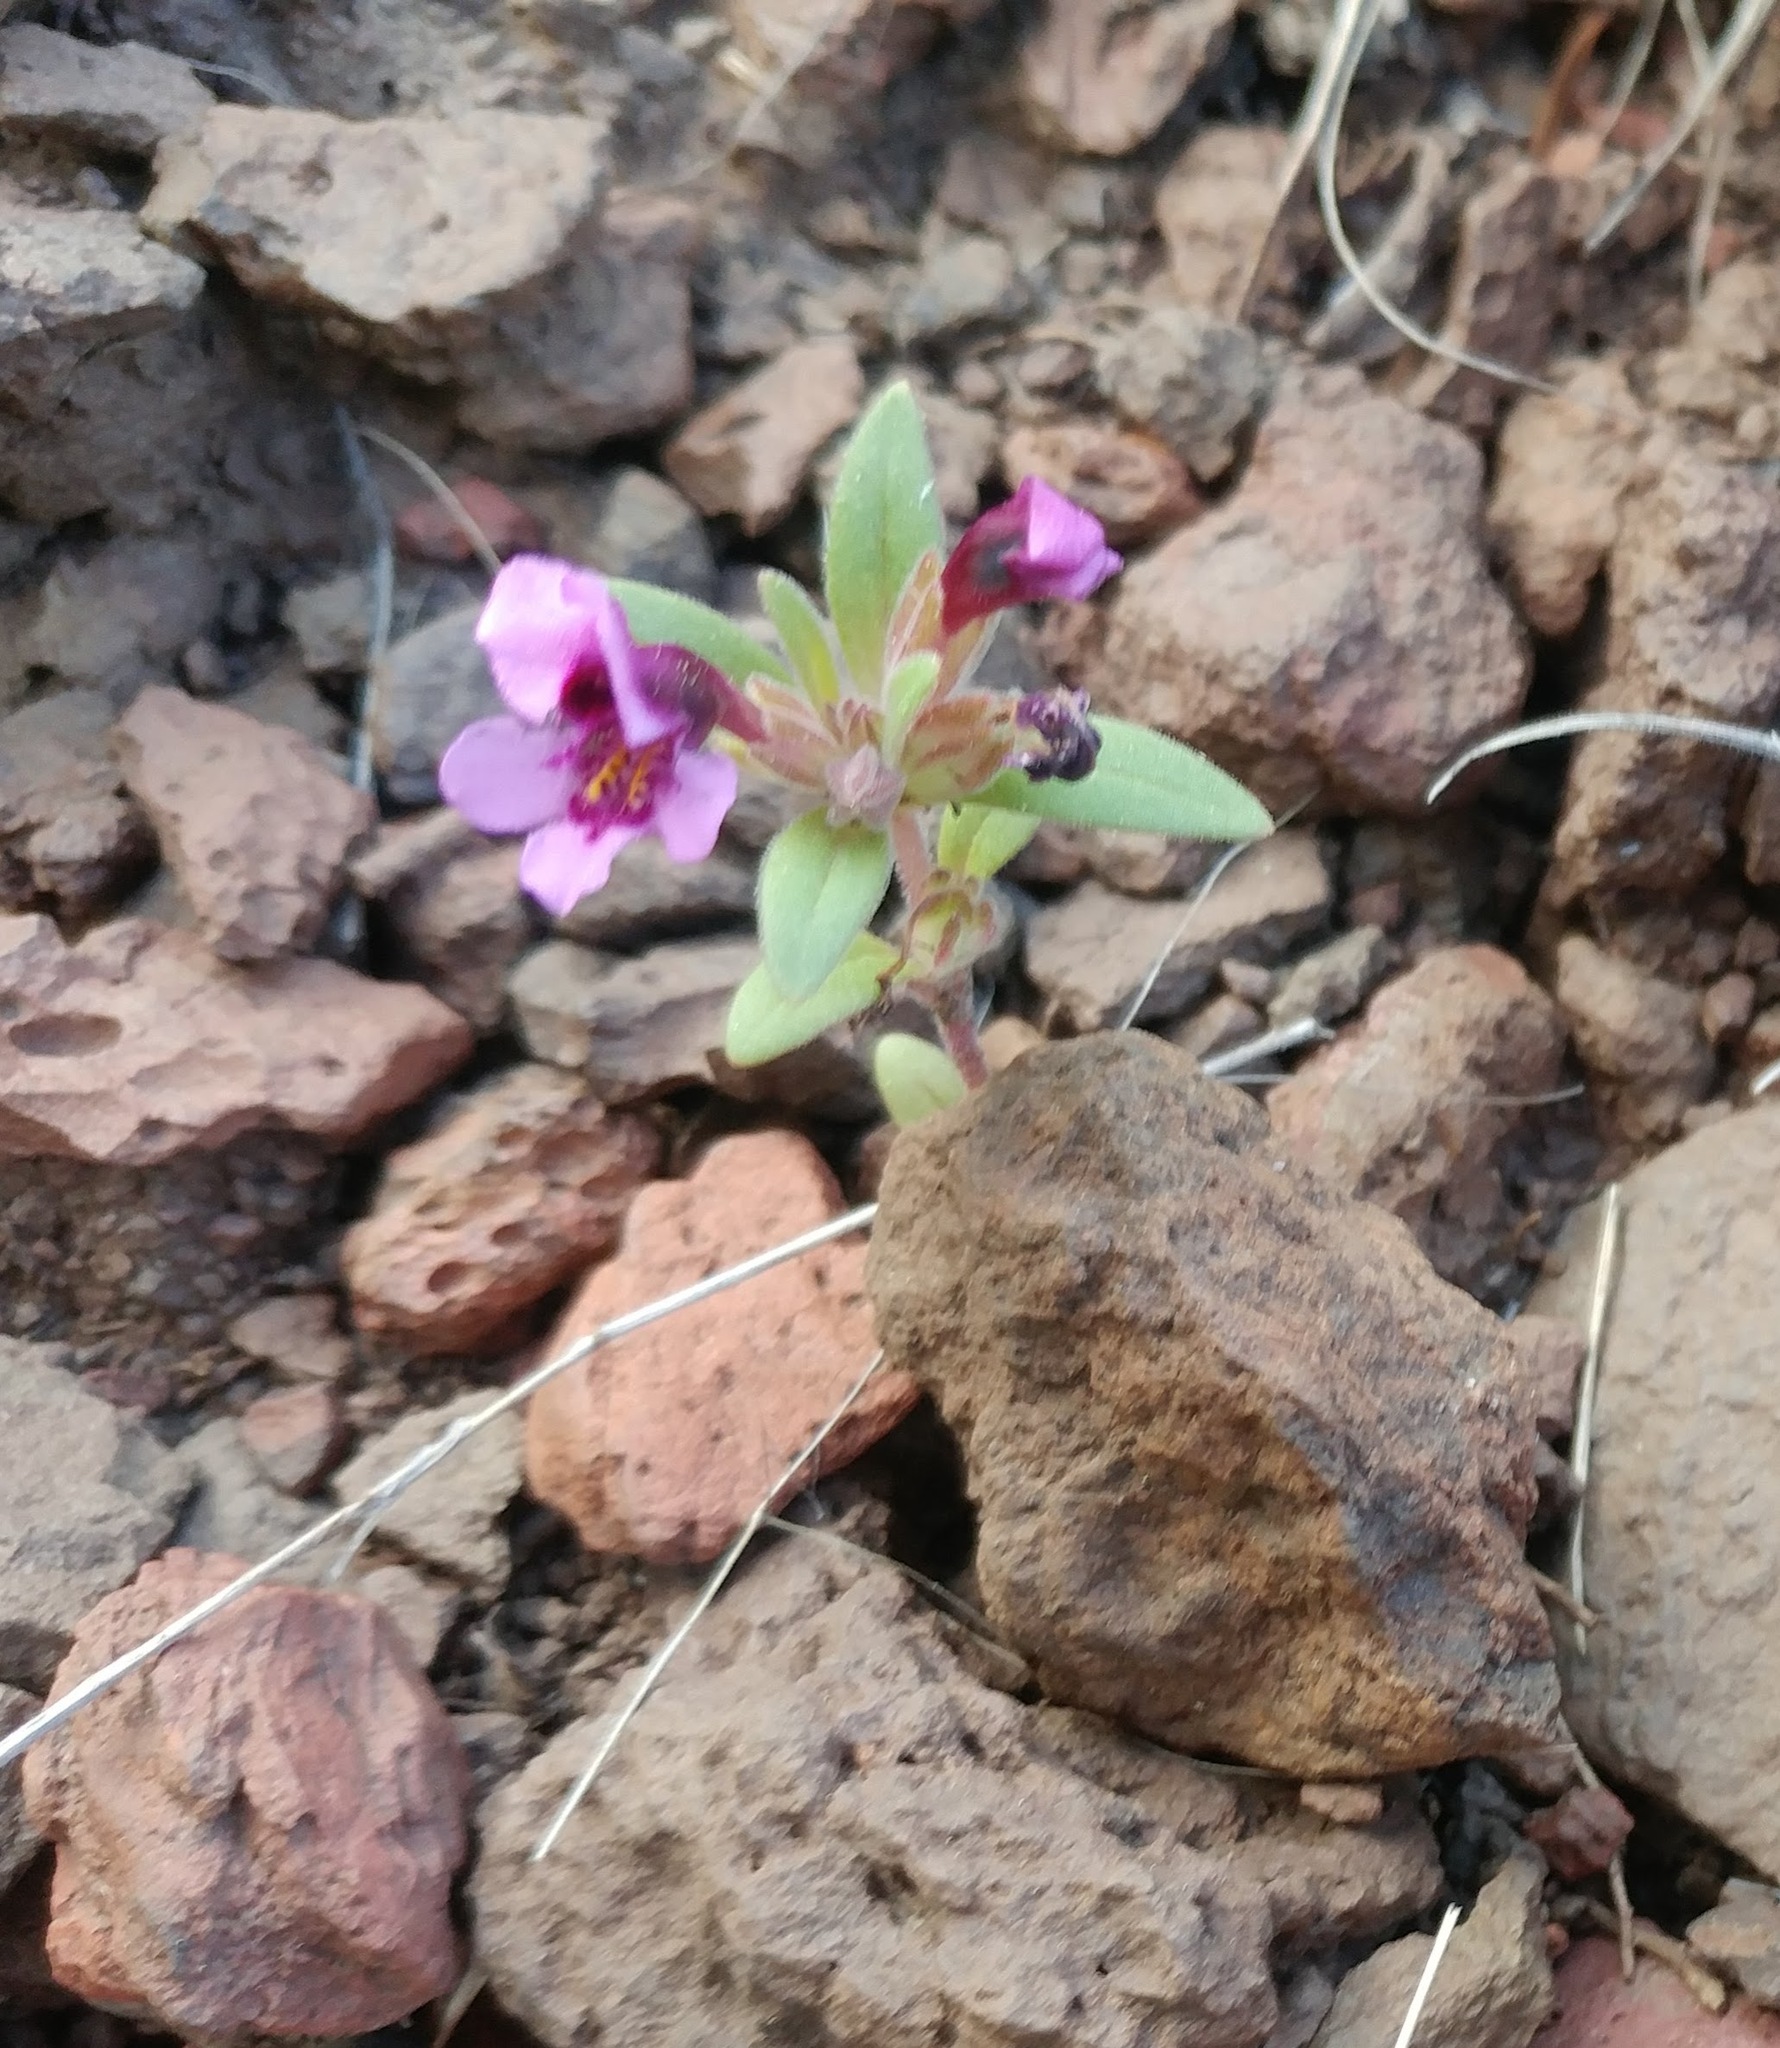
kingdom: Plantae
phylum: Tracheophyta
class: Magnoliopsida
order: Lamiales
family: Phrymaceae
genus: Diplacus
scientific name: Diplacus nanus
